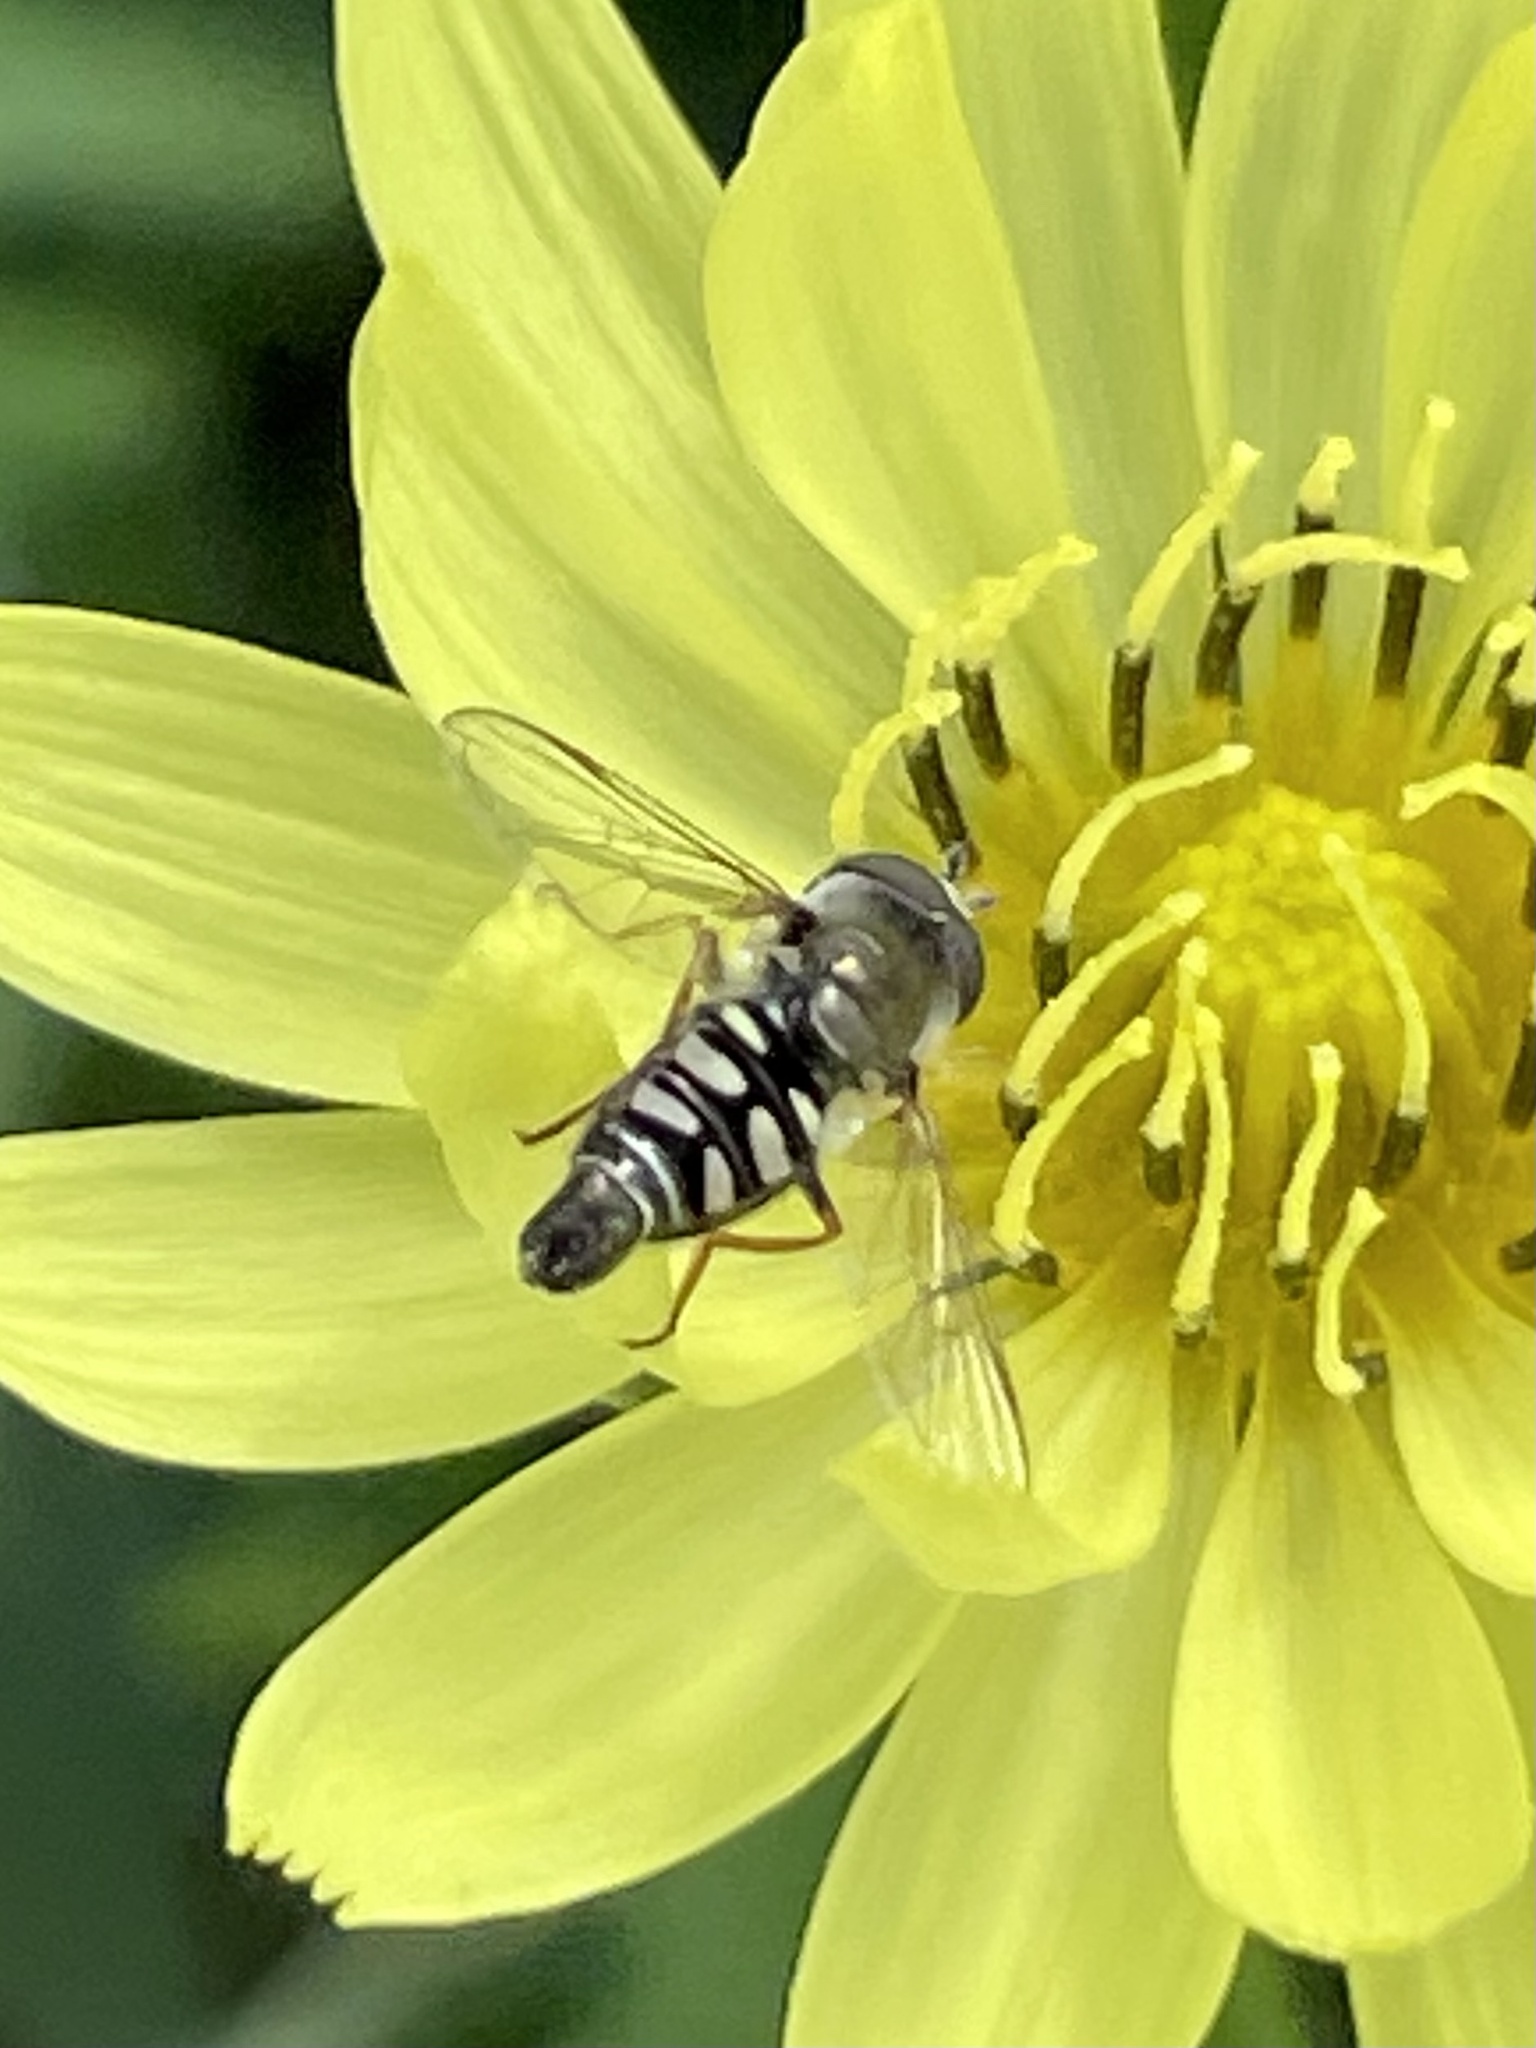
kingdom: Animalia
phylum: Arthropoda
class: Insecta
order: Diptera
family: Syrphidae
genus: Eupeodes
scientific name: Eupeodes volucris
